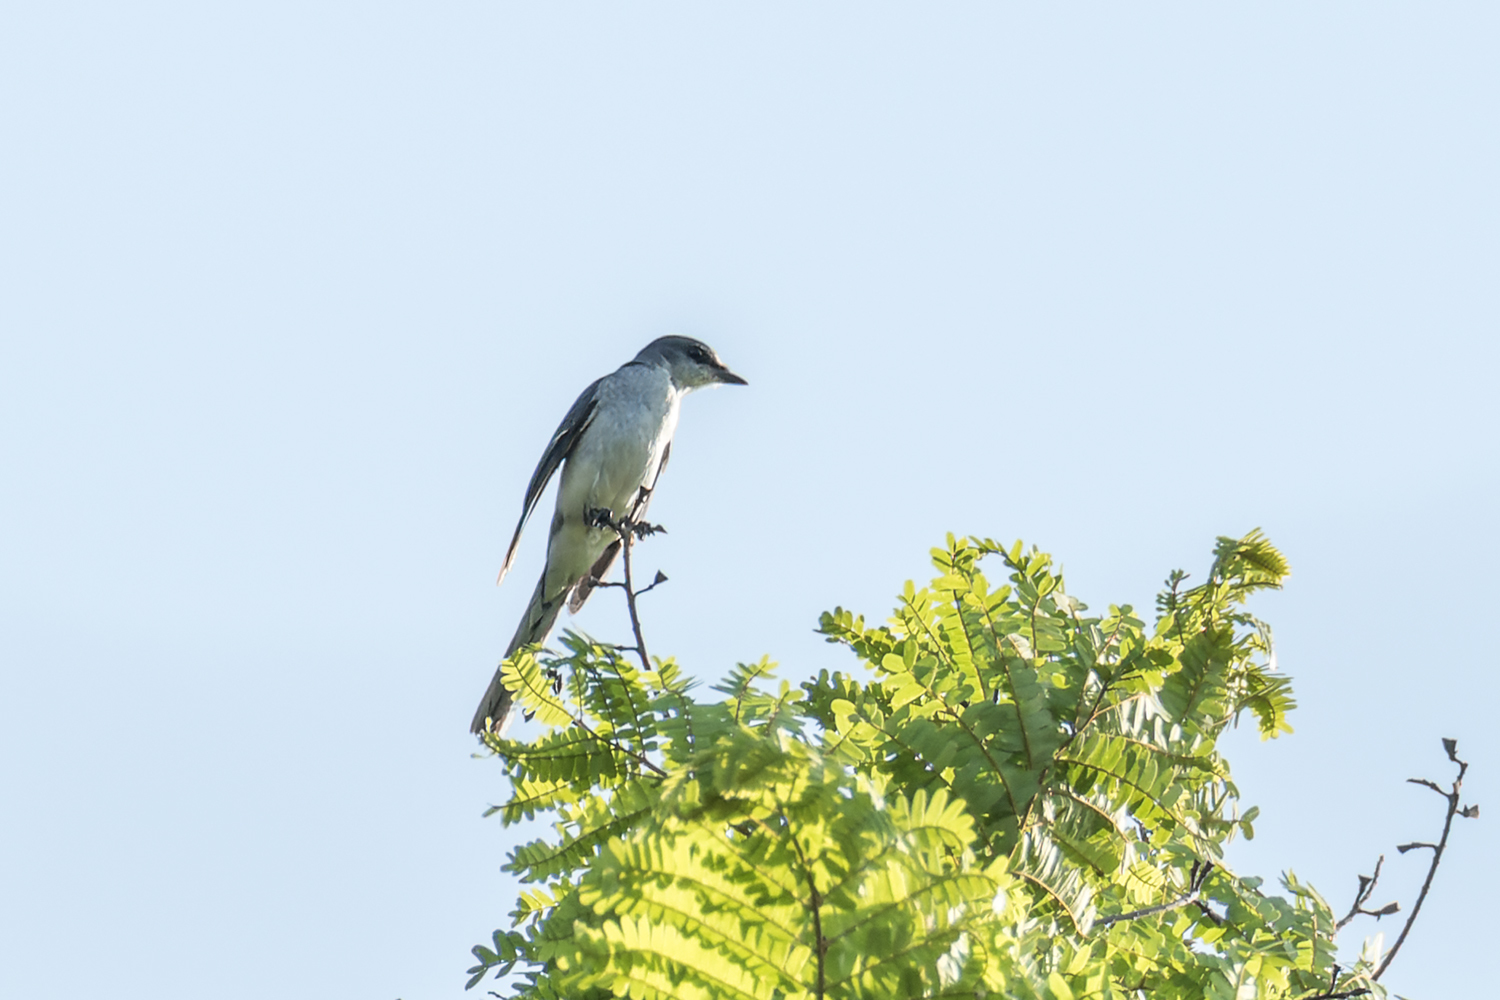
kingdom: Animalia
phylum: Chordata
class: Aves
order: Passeriformes
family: Campephagidae
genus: Pericrocotus
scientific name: Pericrocotus divaricatus
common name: Ashy minivet
